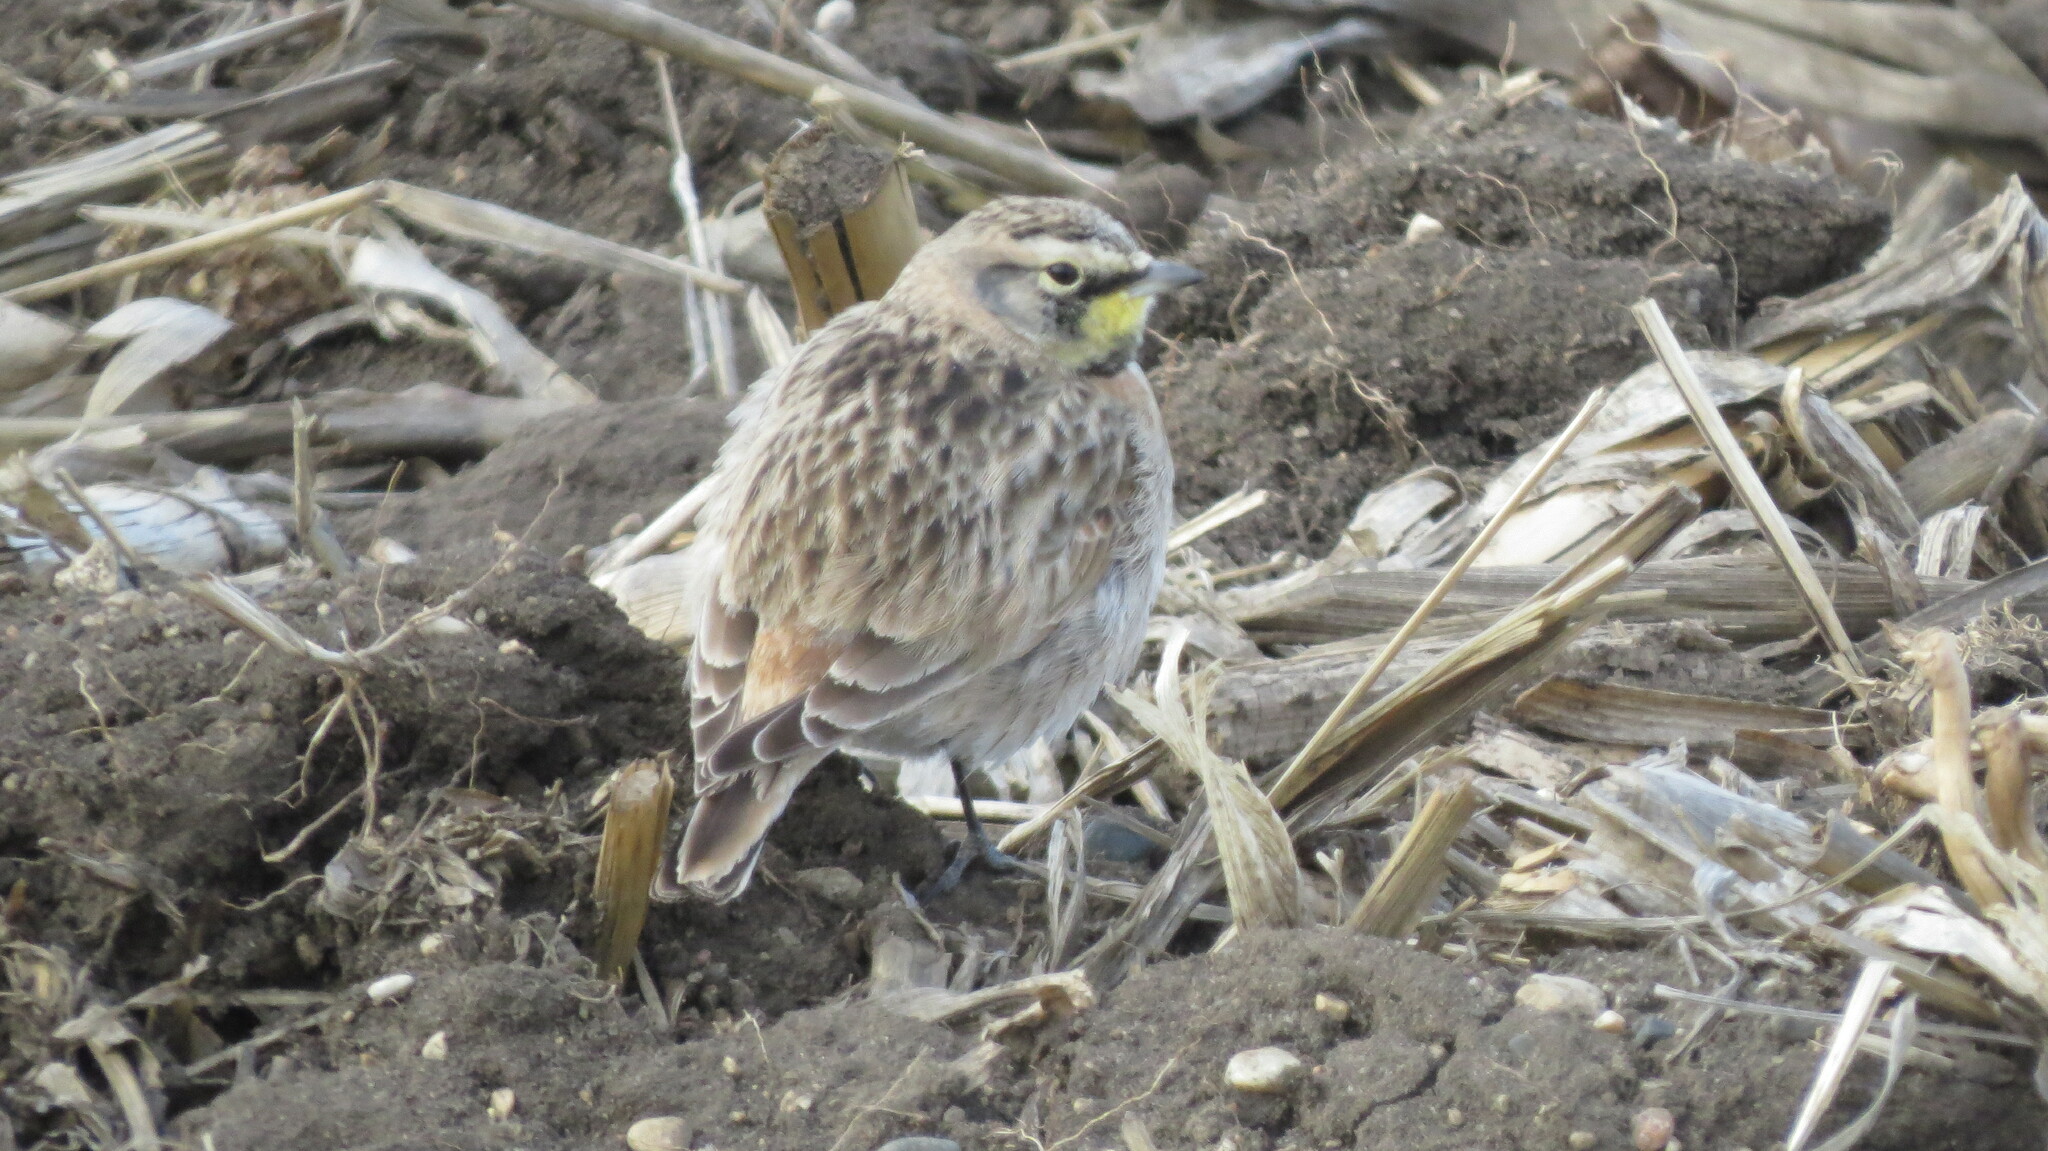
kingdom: Animalia
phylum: Chordata
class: Aves
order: Passeriformes
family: Alaudidae
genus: Eremophila
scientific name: Eremophila alpestris
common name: Horned lark
